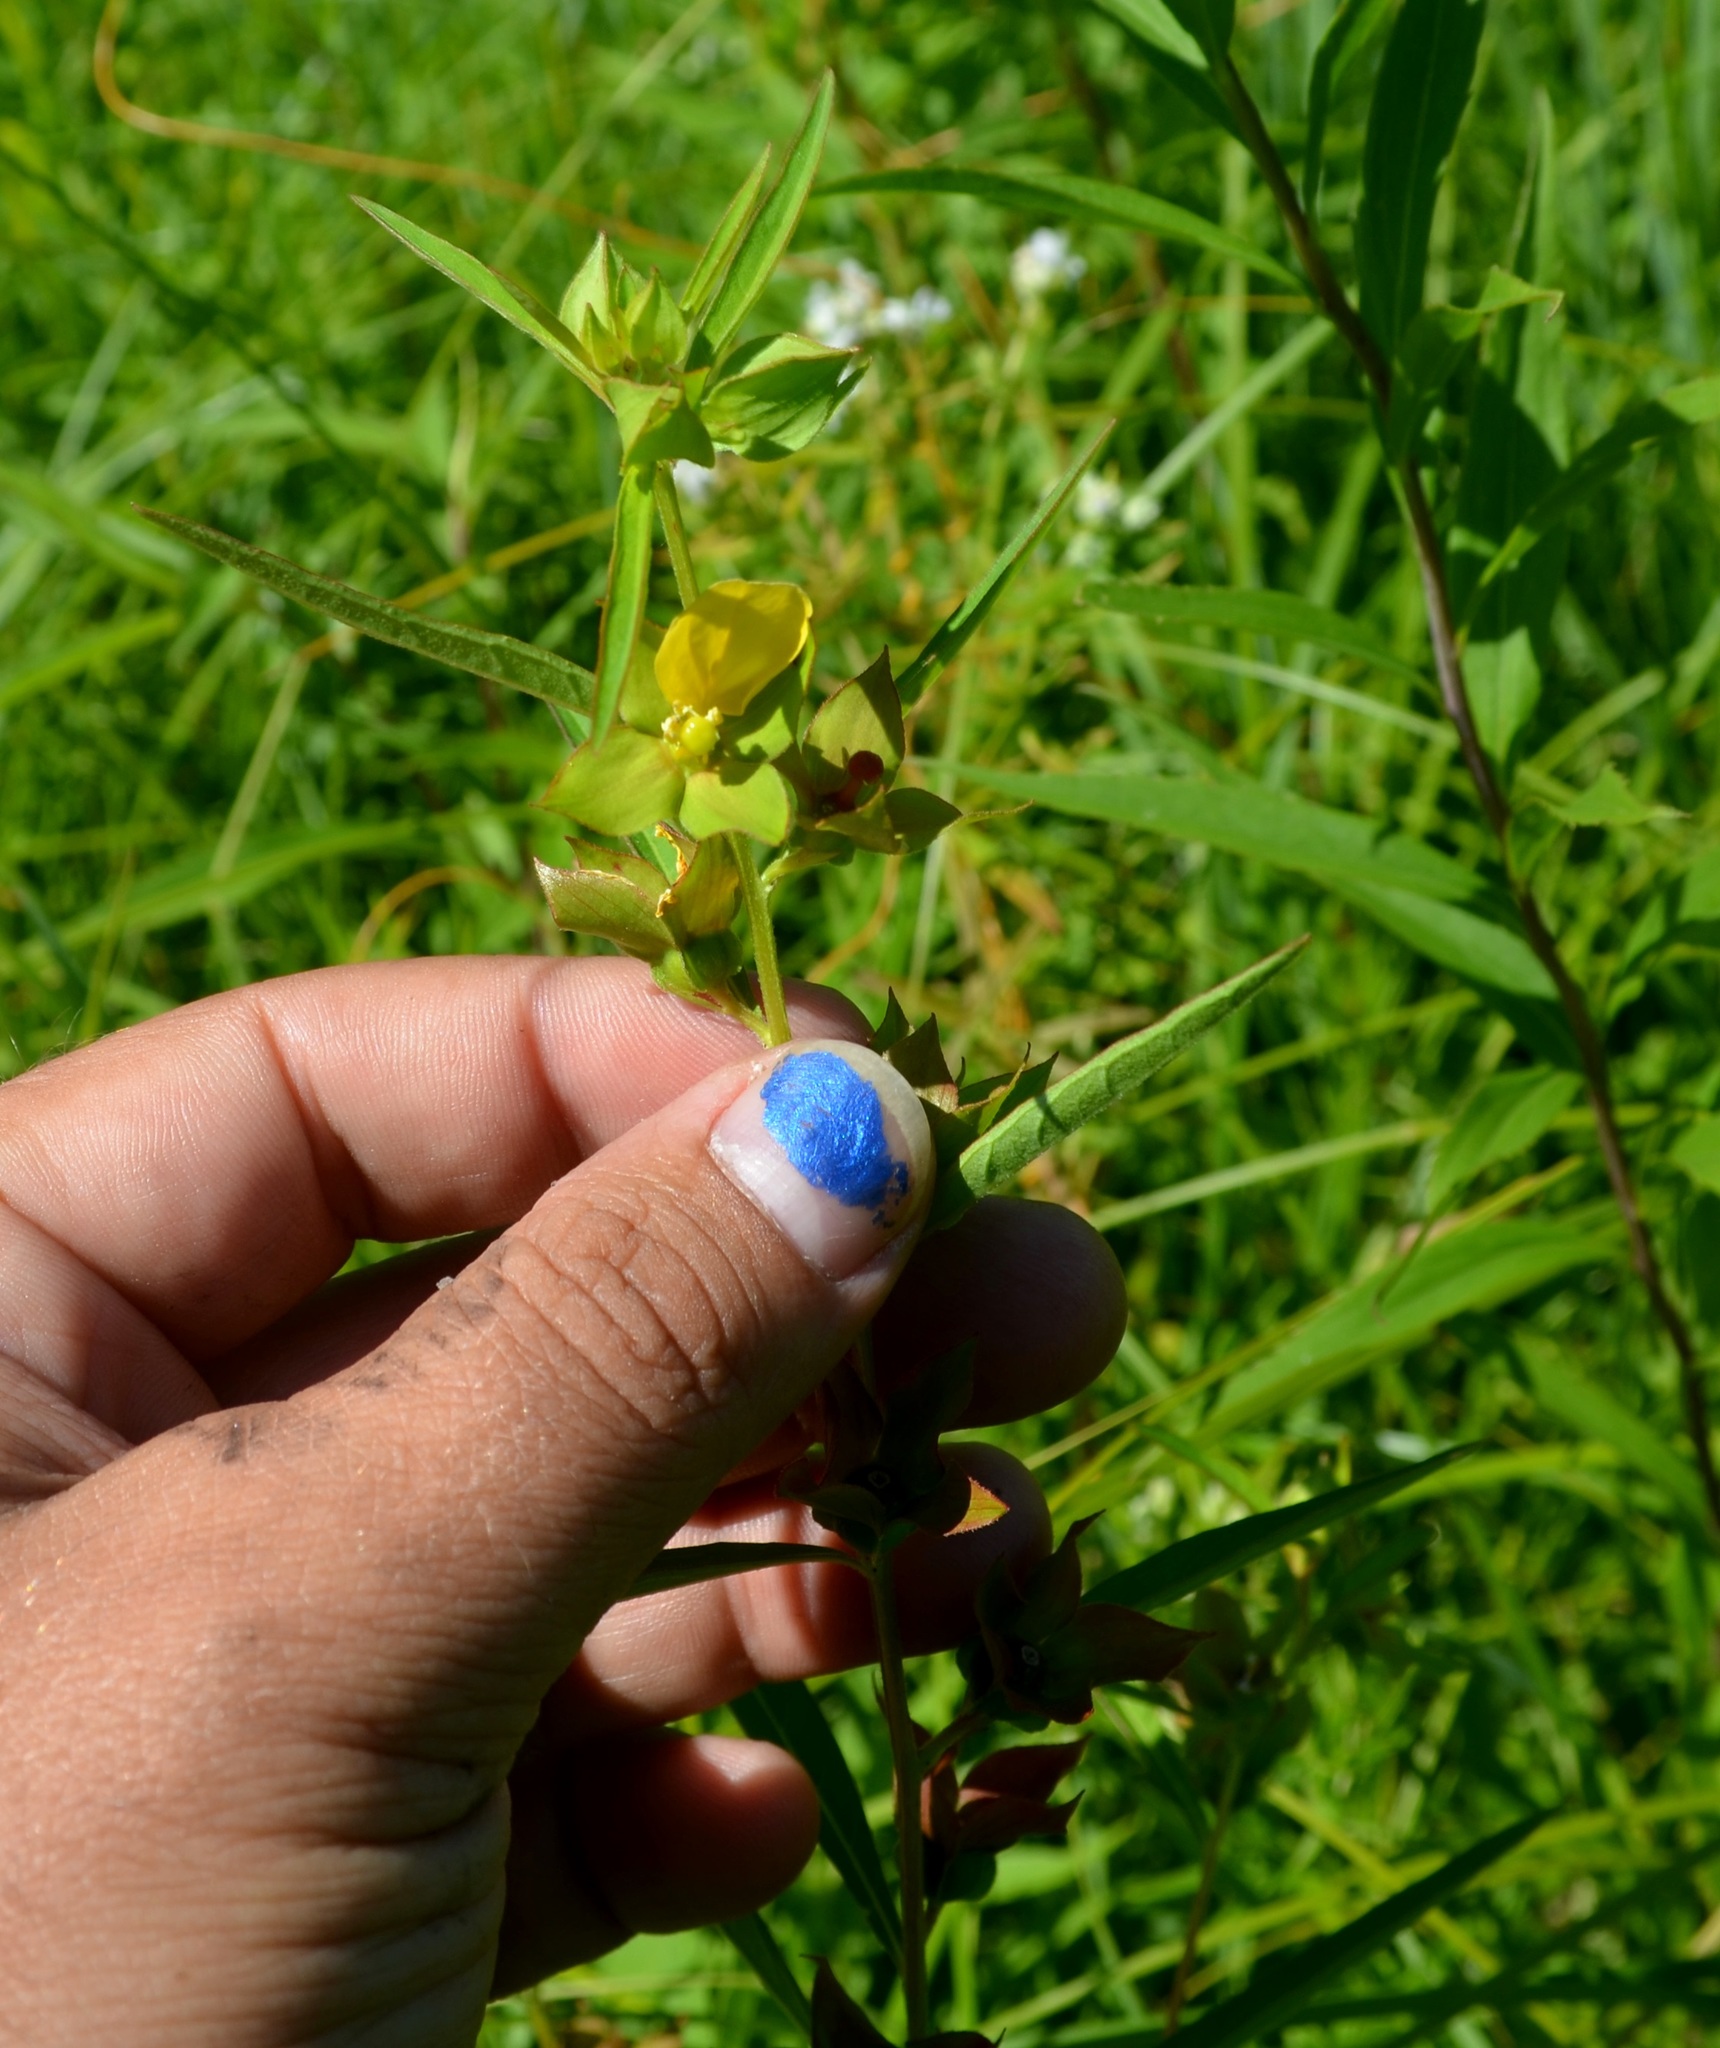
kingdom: Plantae
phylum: Tracheophyta
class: Magnoliopsida
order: Myrtales
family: Onagraceae
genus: Ludwigia
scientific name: Ludwigia alternifolia
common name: Rattlebox
